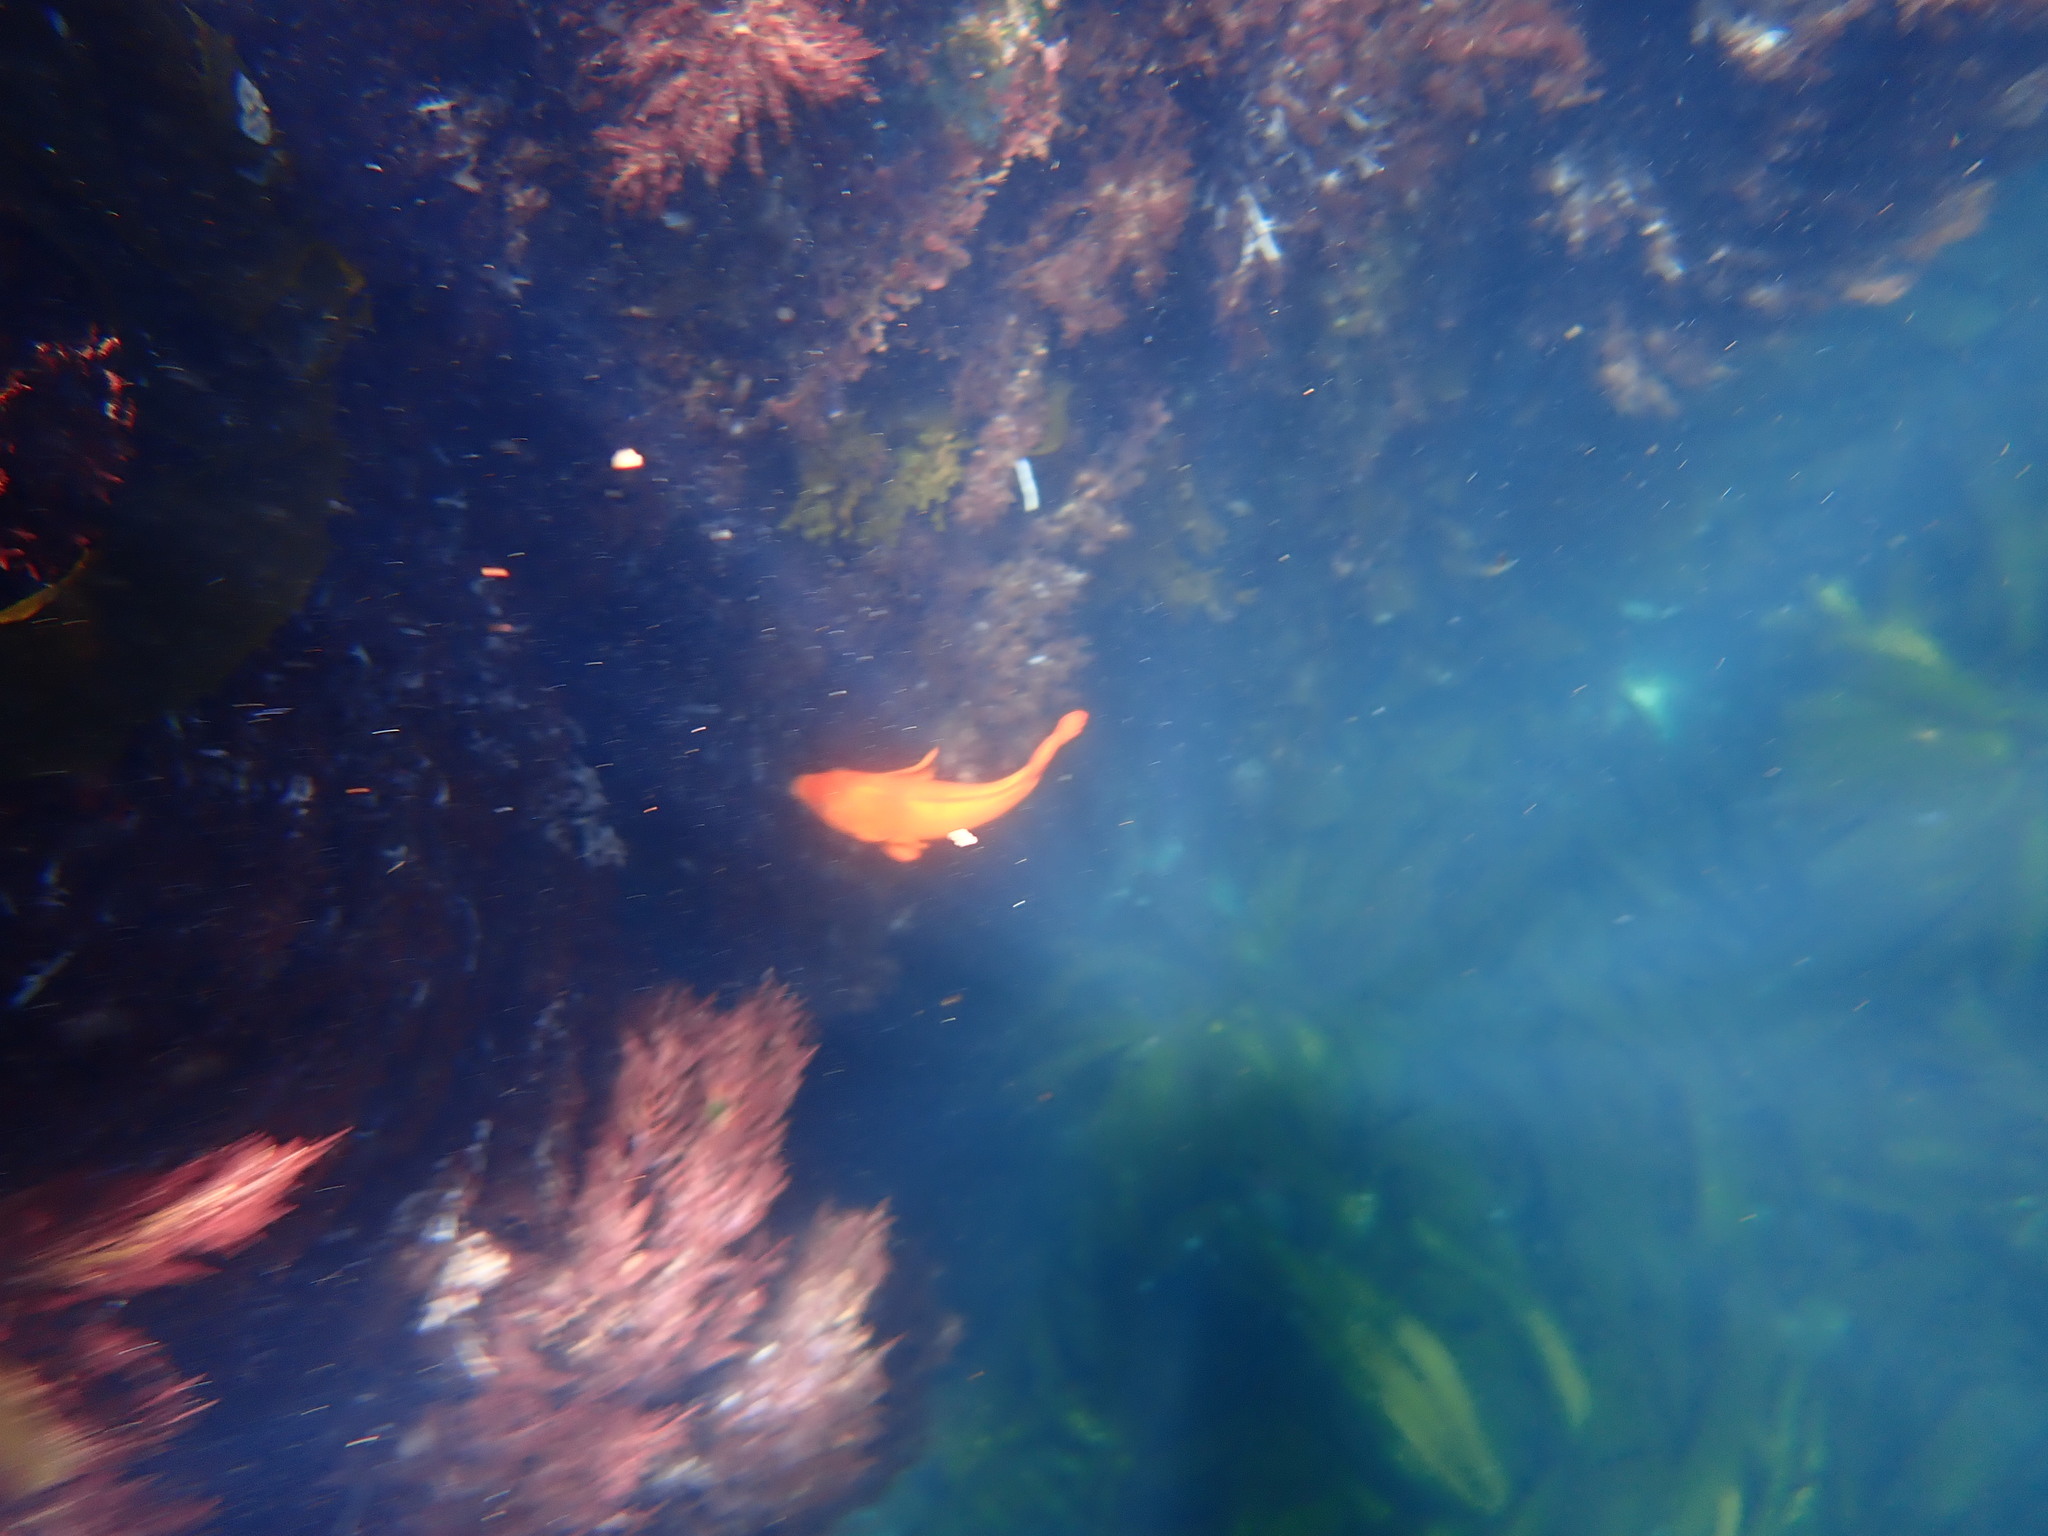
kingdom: Animalia
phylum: Chordata
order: Perciformes
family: Pomacentridae
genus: Hypsypops
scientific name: Hypsypops rubicundus
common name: Garibaldi
